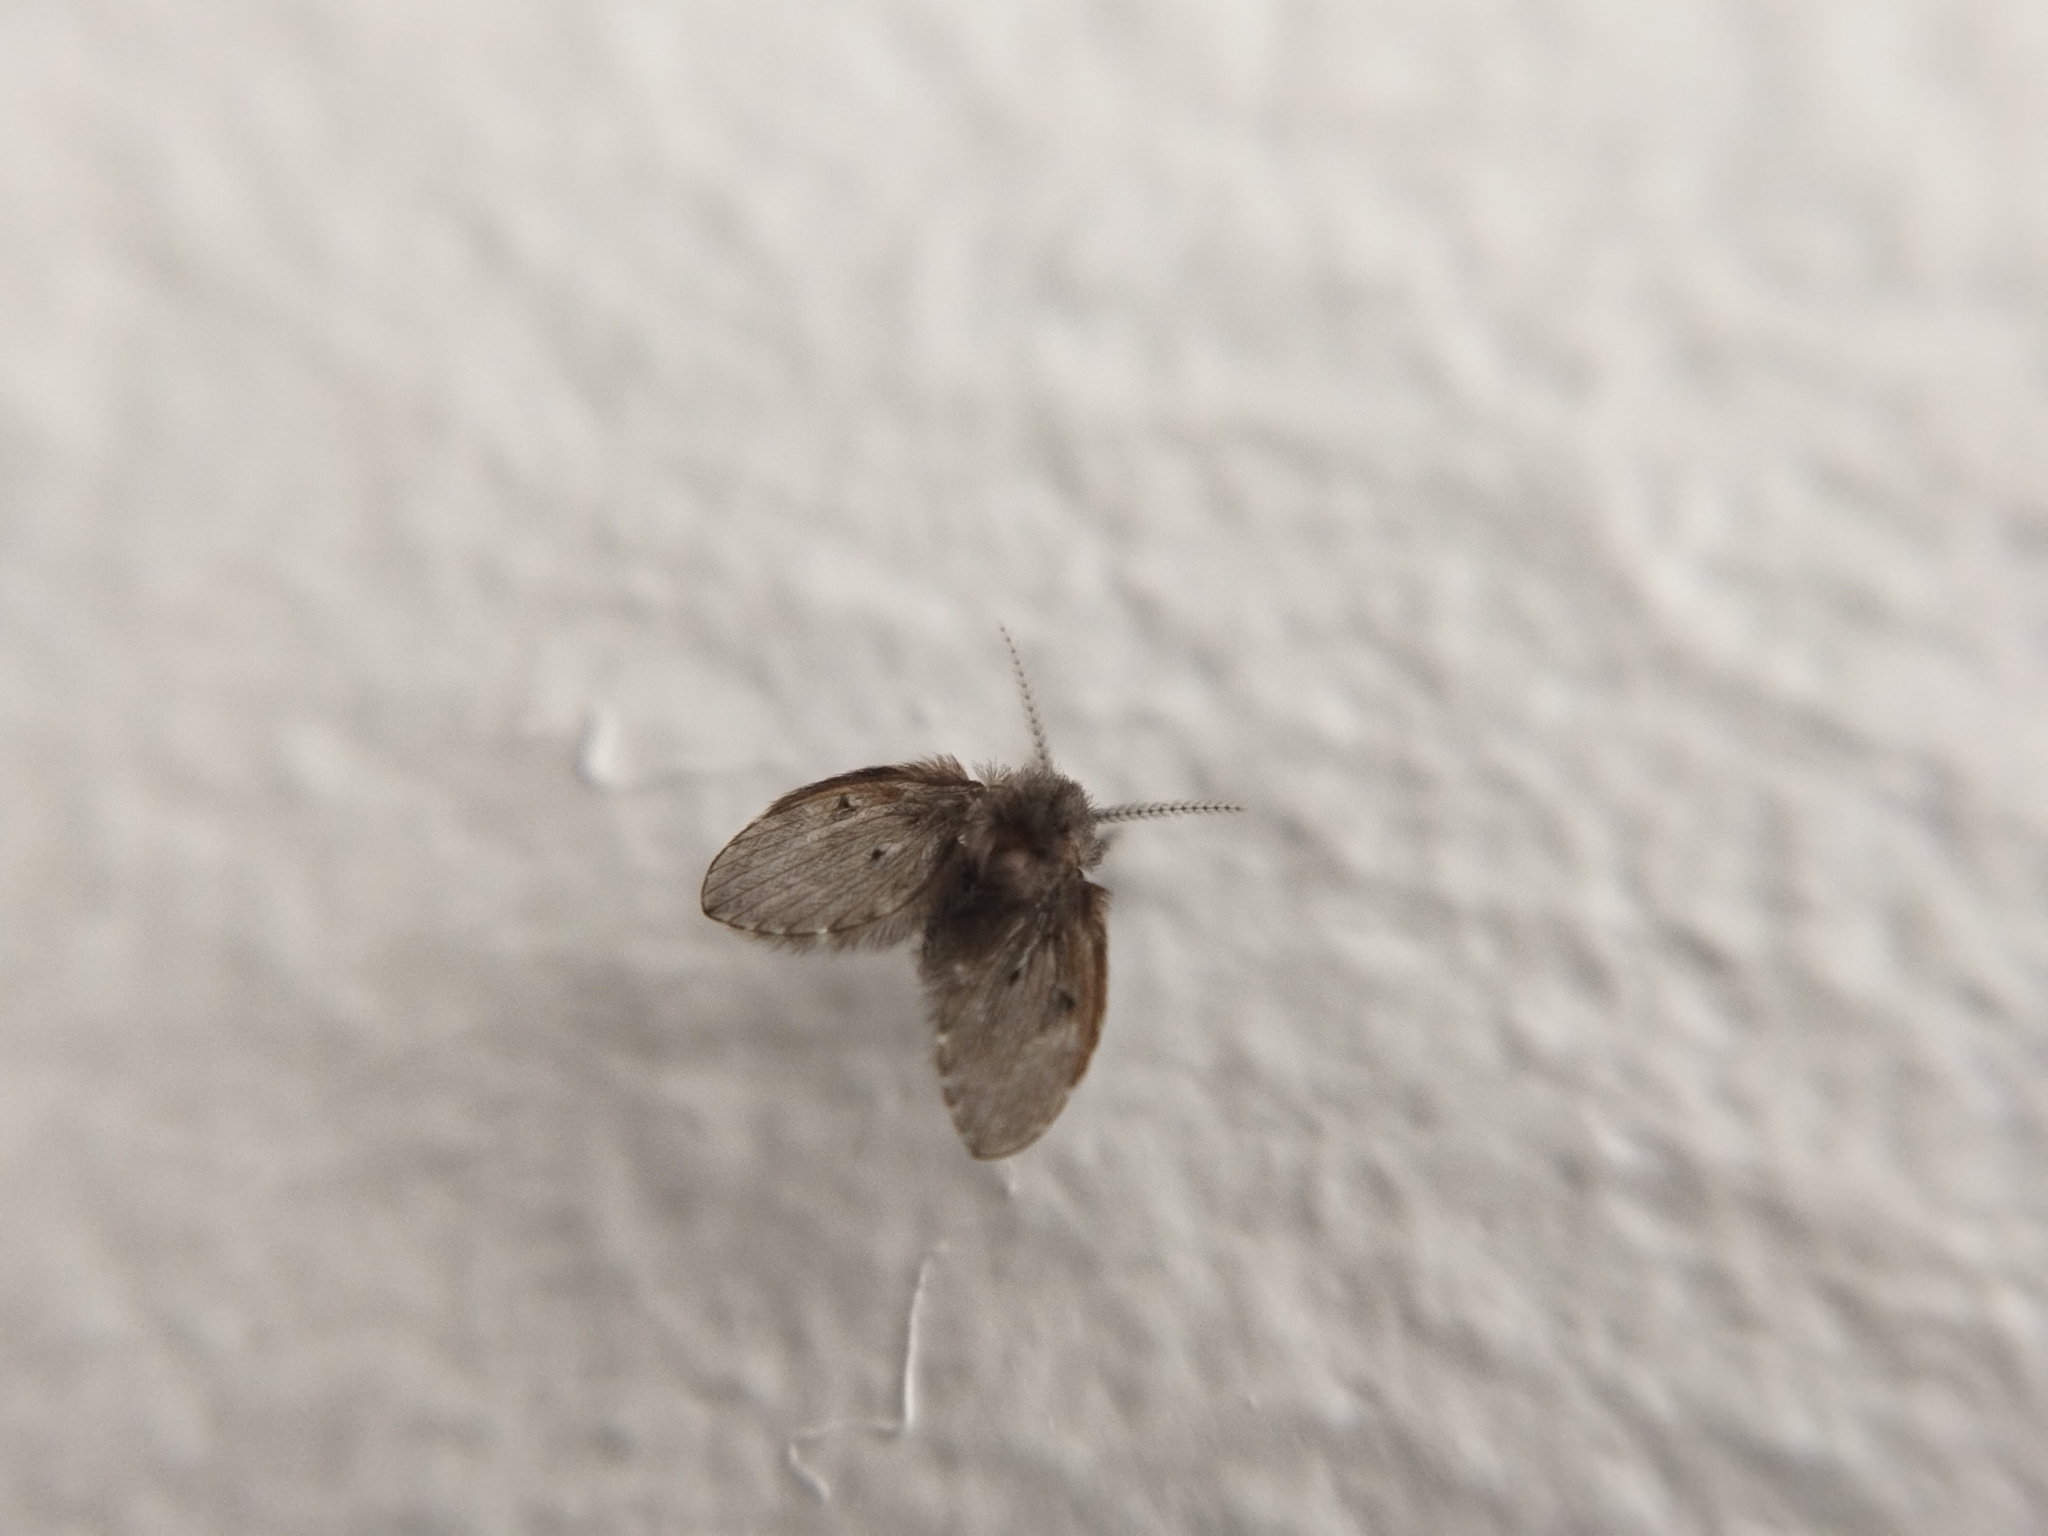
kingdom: Animalia
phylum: Arthropoda
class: Insecta
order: Diptera
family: Psychodidae
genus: Clogmia
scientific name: Clogmia albipunctatus
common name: White-spotted moth fly
